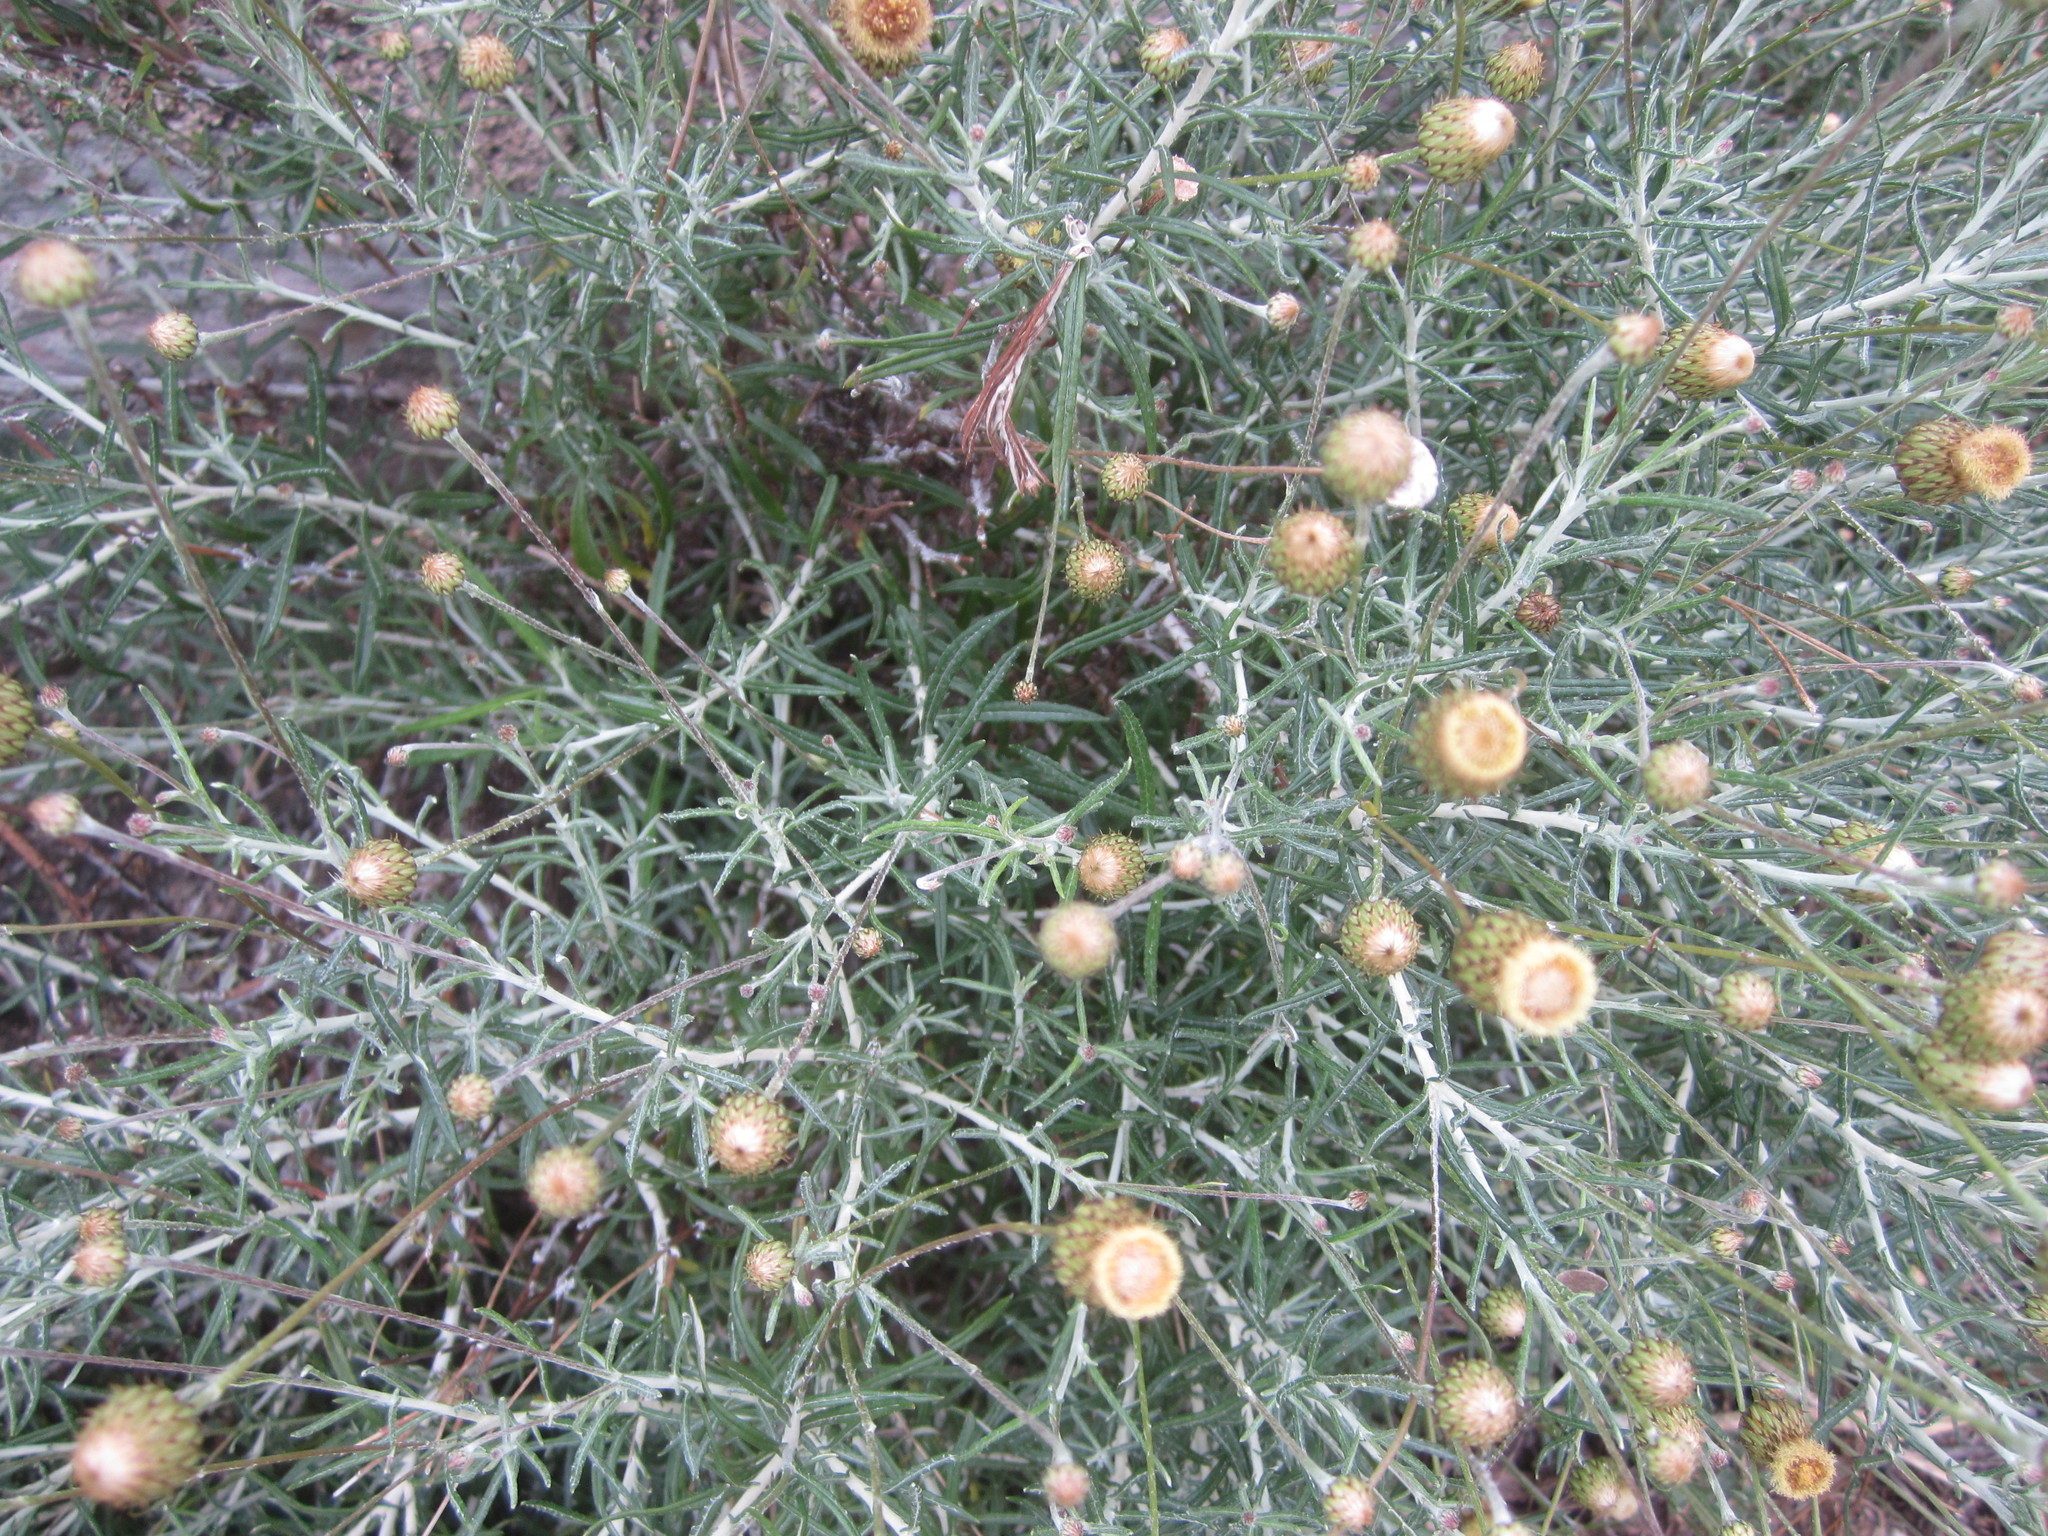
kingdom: Plantae
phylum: Tracheophyta
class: Magnoliopsida
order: Asterales
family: Asteraceae
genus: Phagnalon
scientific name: Phagnalon saxatile
